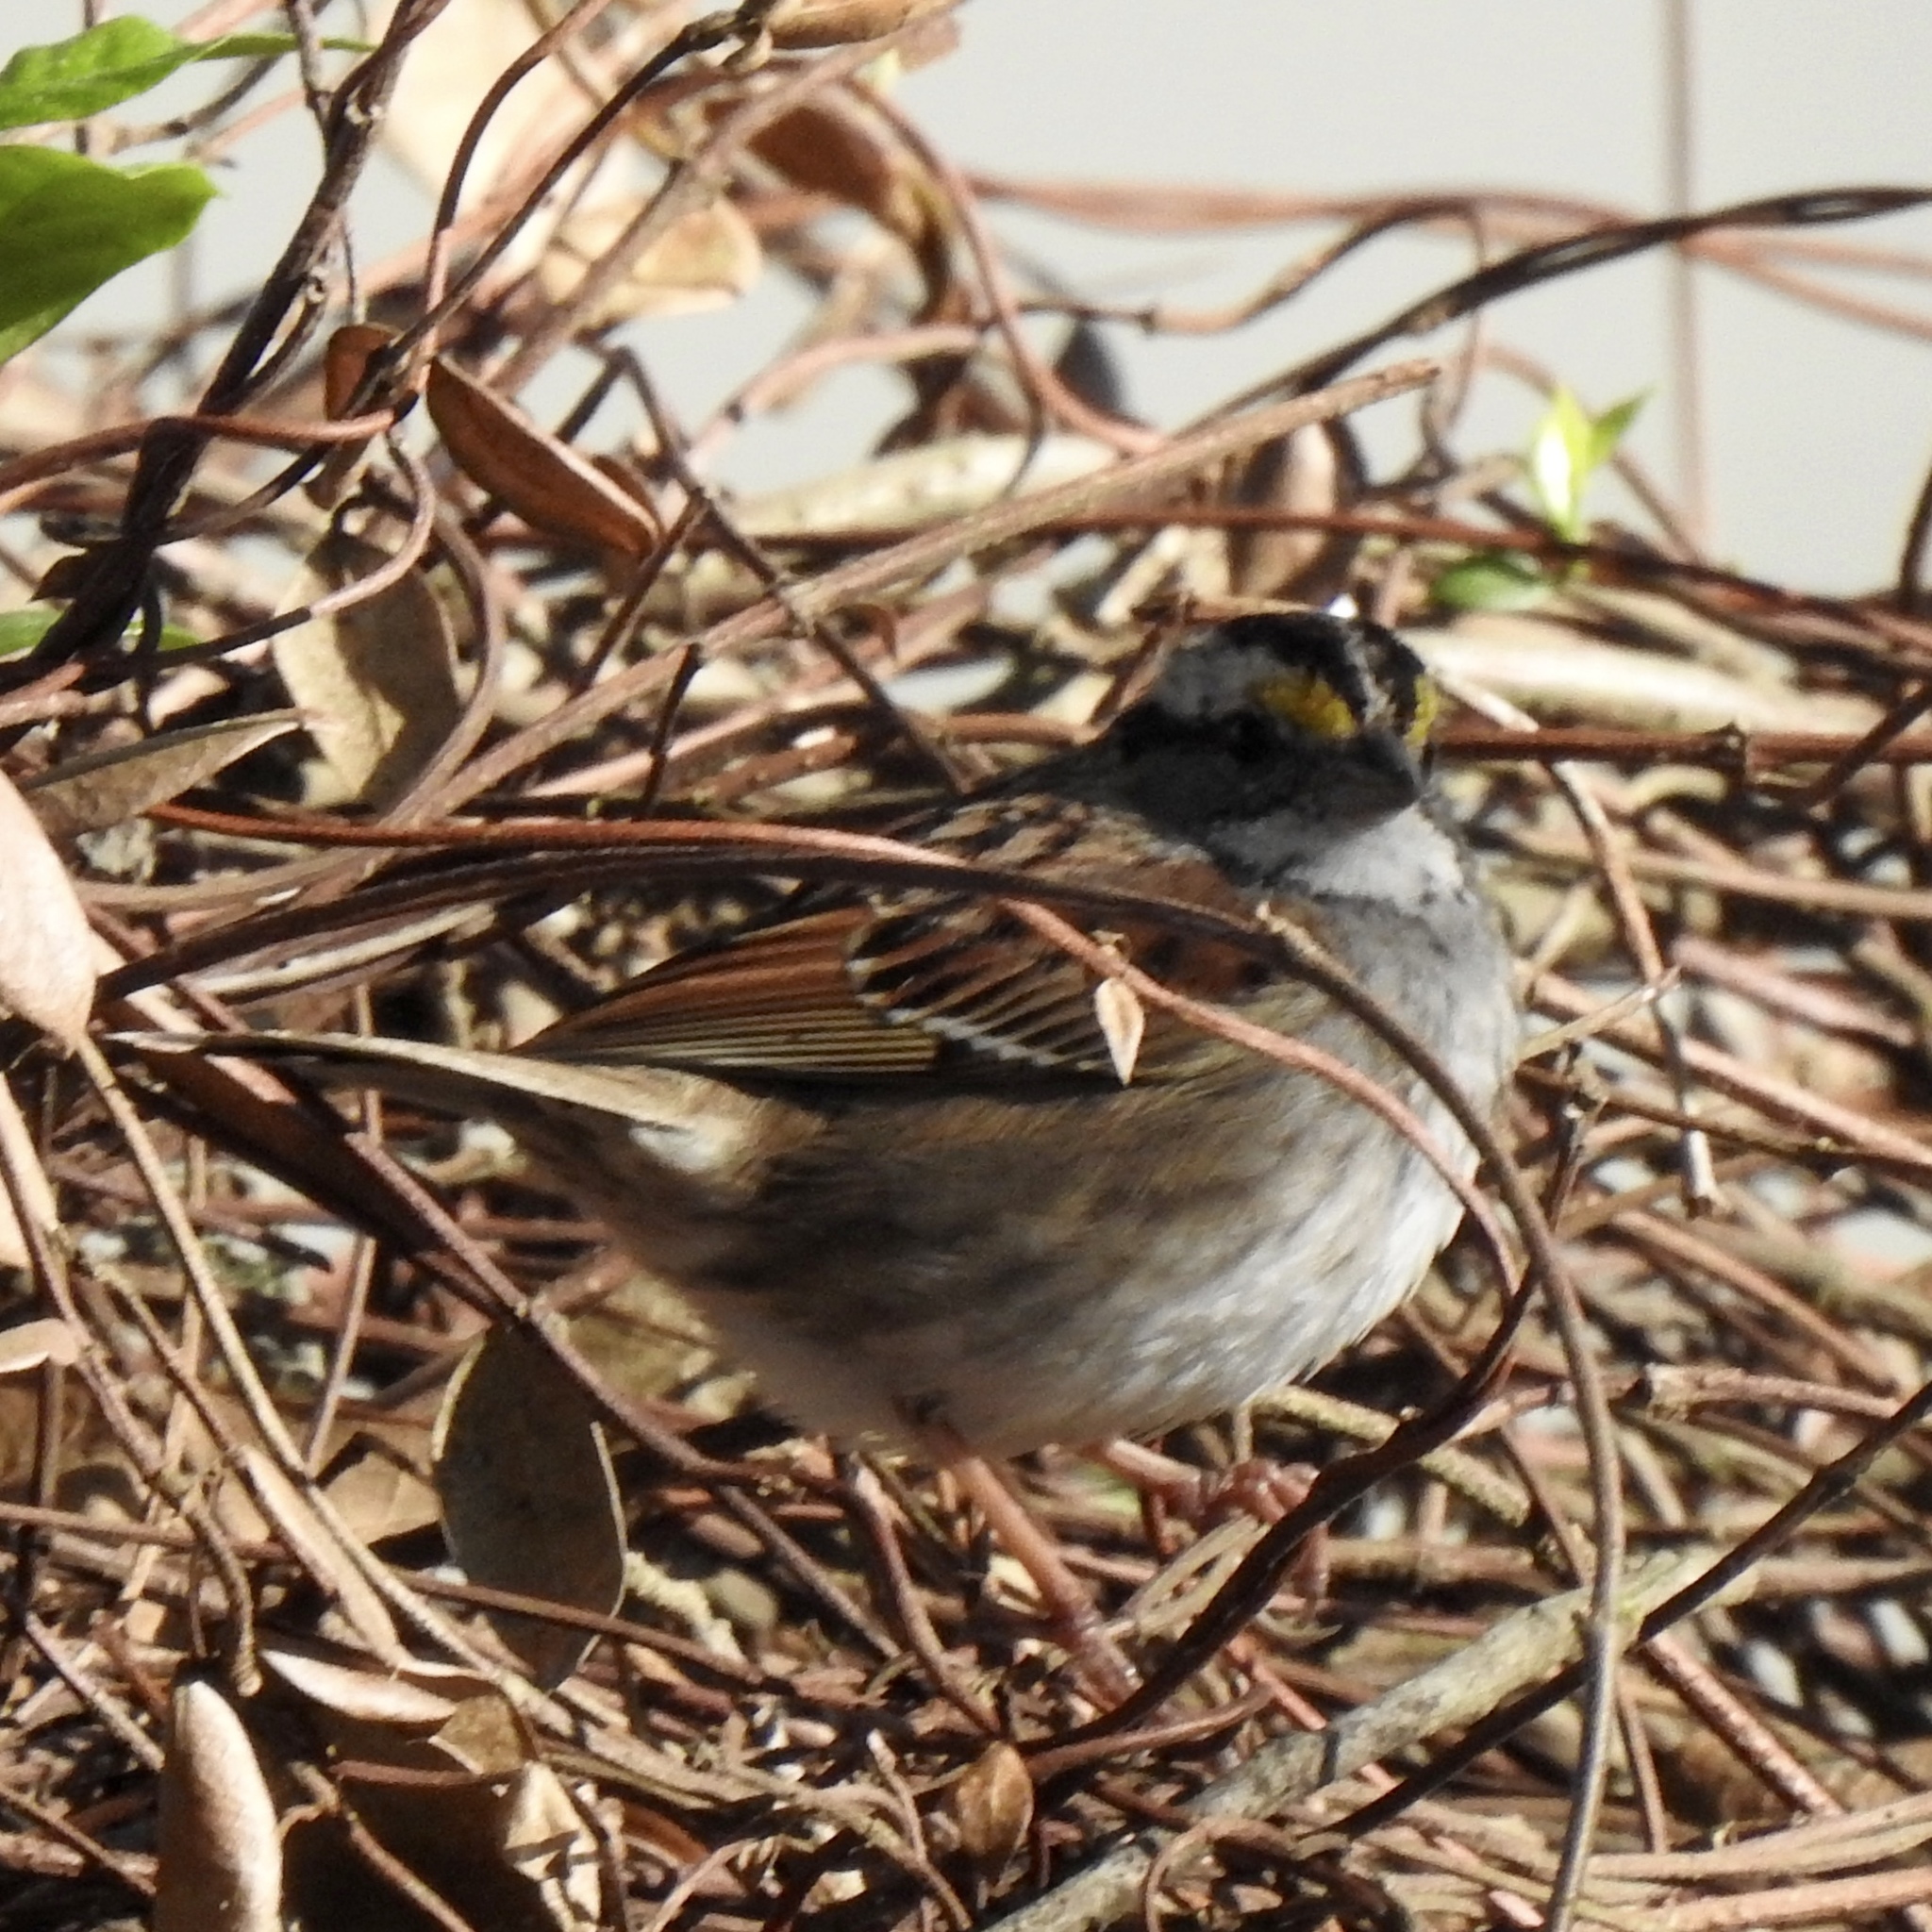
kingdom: Animalia
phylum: Chordata
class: Aves
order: Passeriformes
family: Passerellidae
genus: Zonotrichia
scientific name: Zonotrichia albicollis
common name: White-throated sparrow
